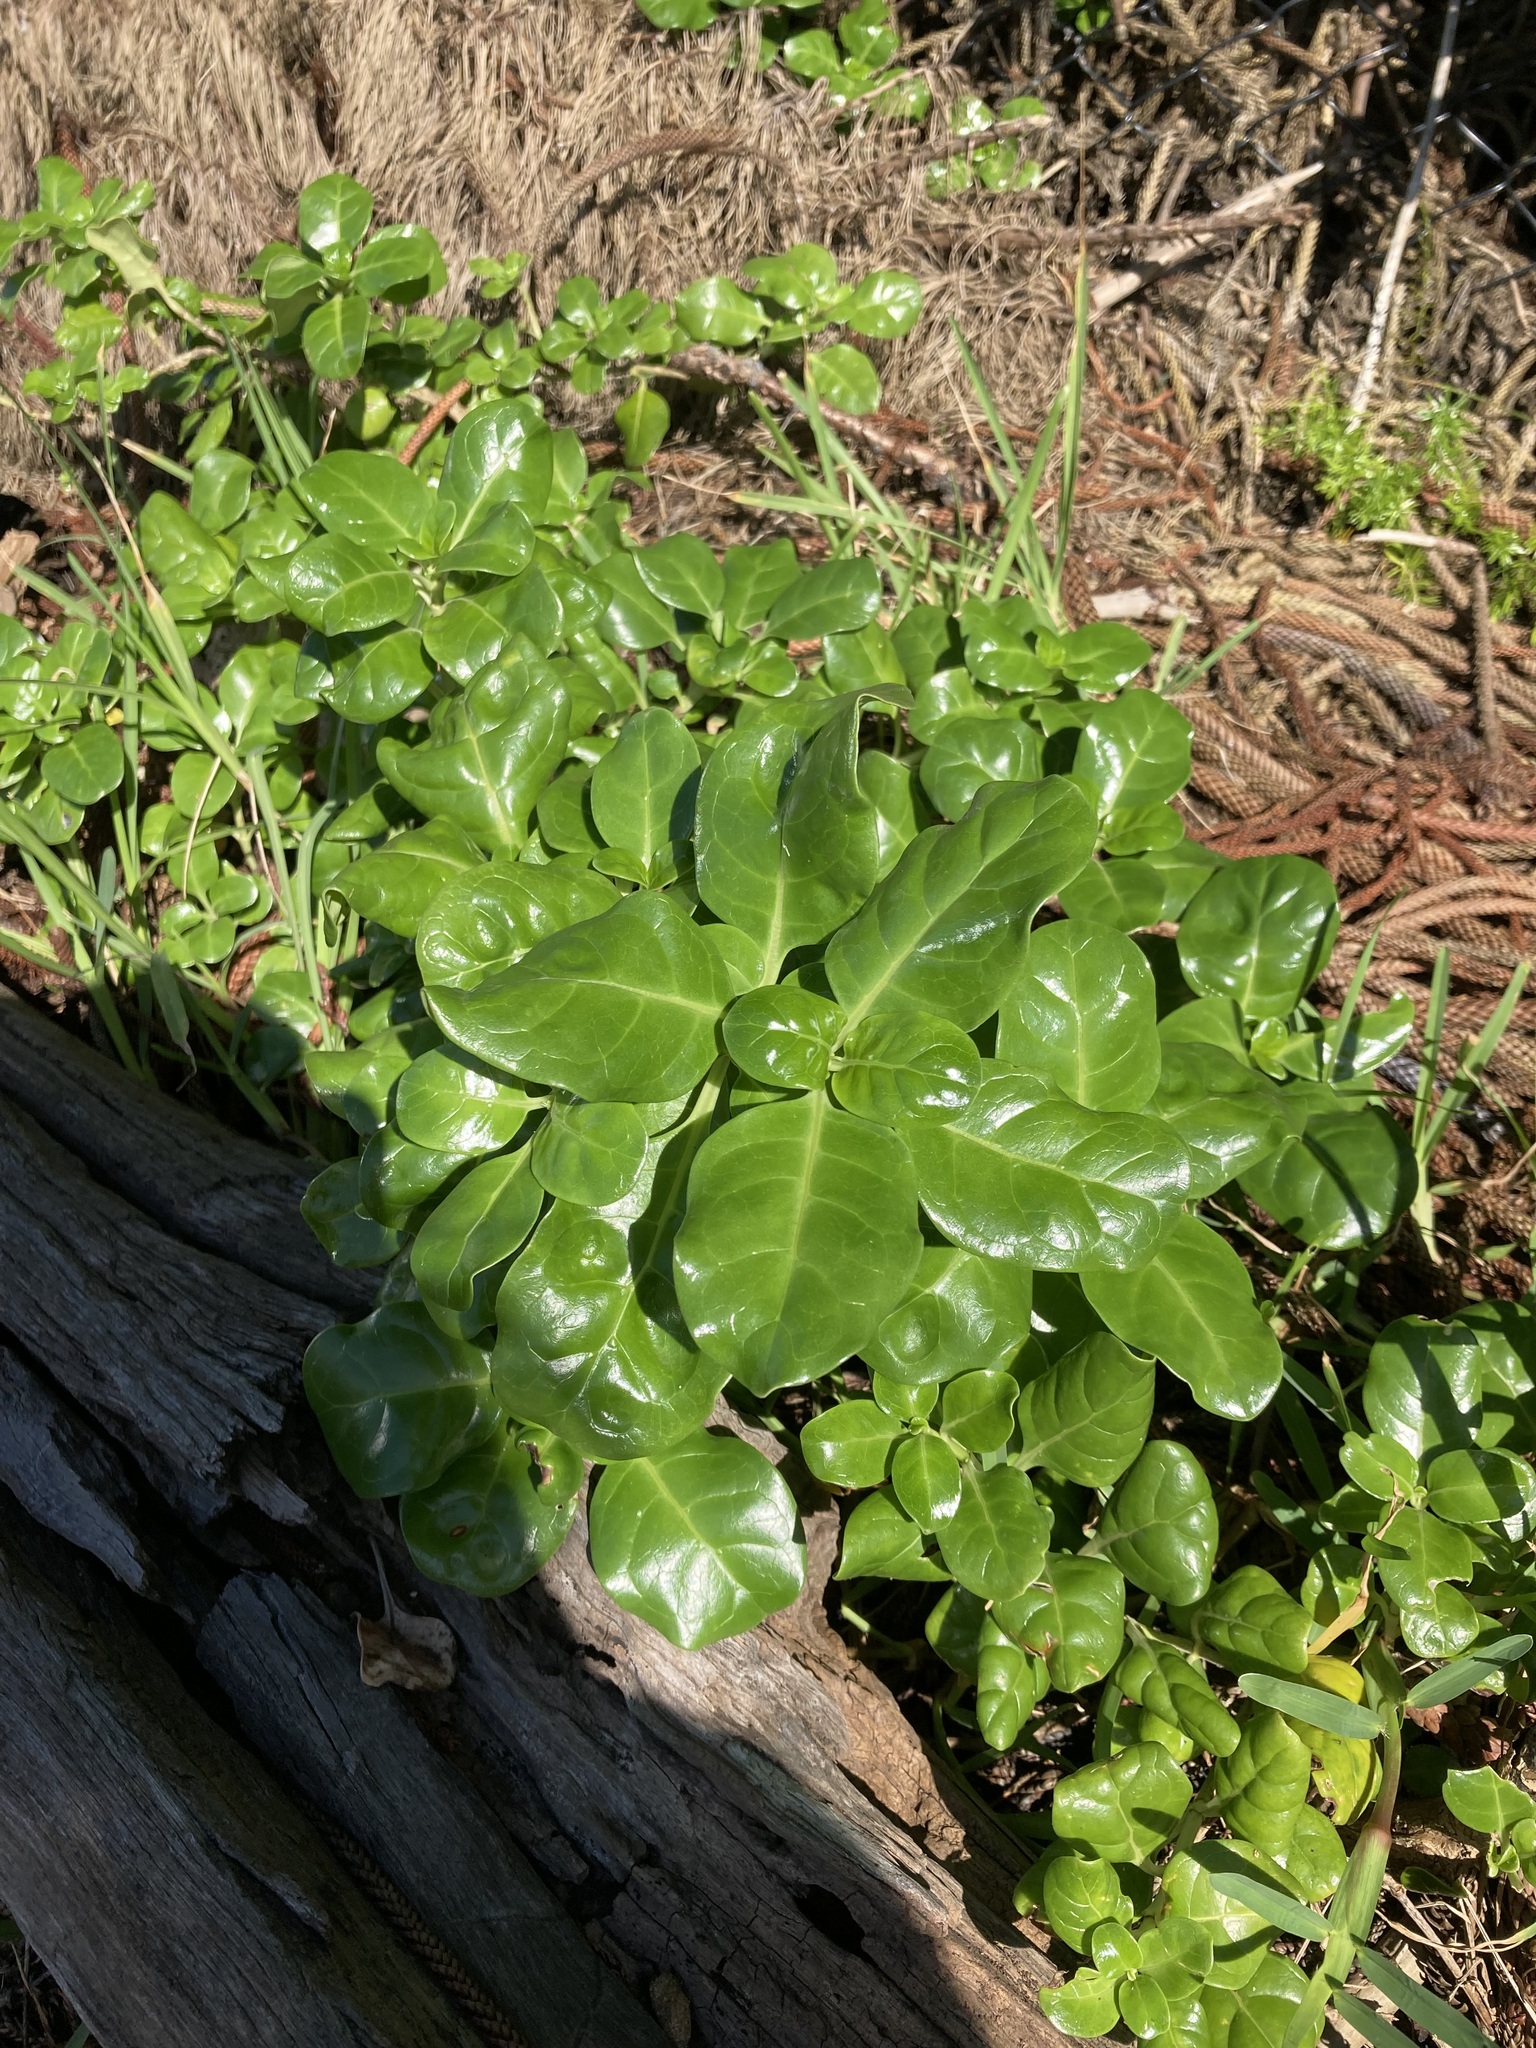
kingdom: Plantae
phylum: Tracheophyta
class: Magnoliopsida
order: Gentianales
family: Rubiaceae
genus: Coprosma
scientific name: Coprosma repens
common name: Tree bedstraw
